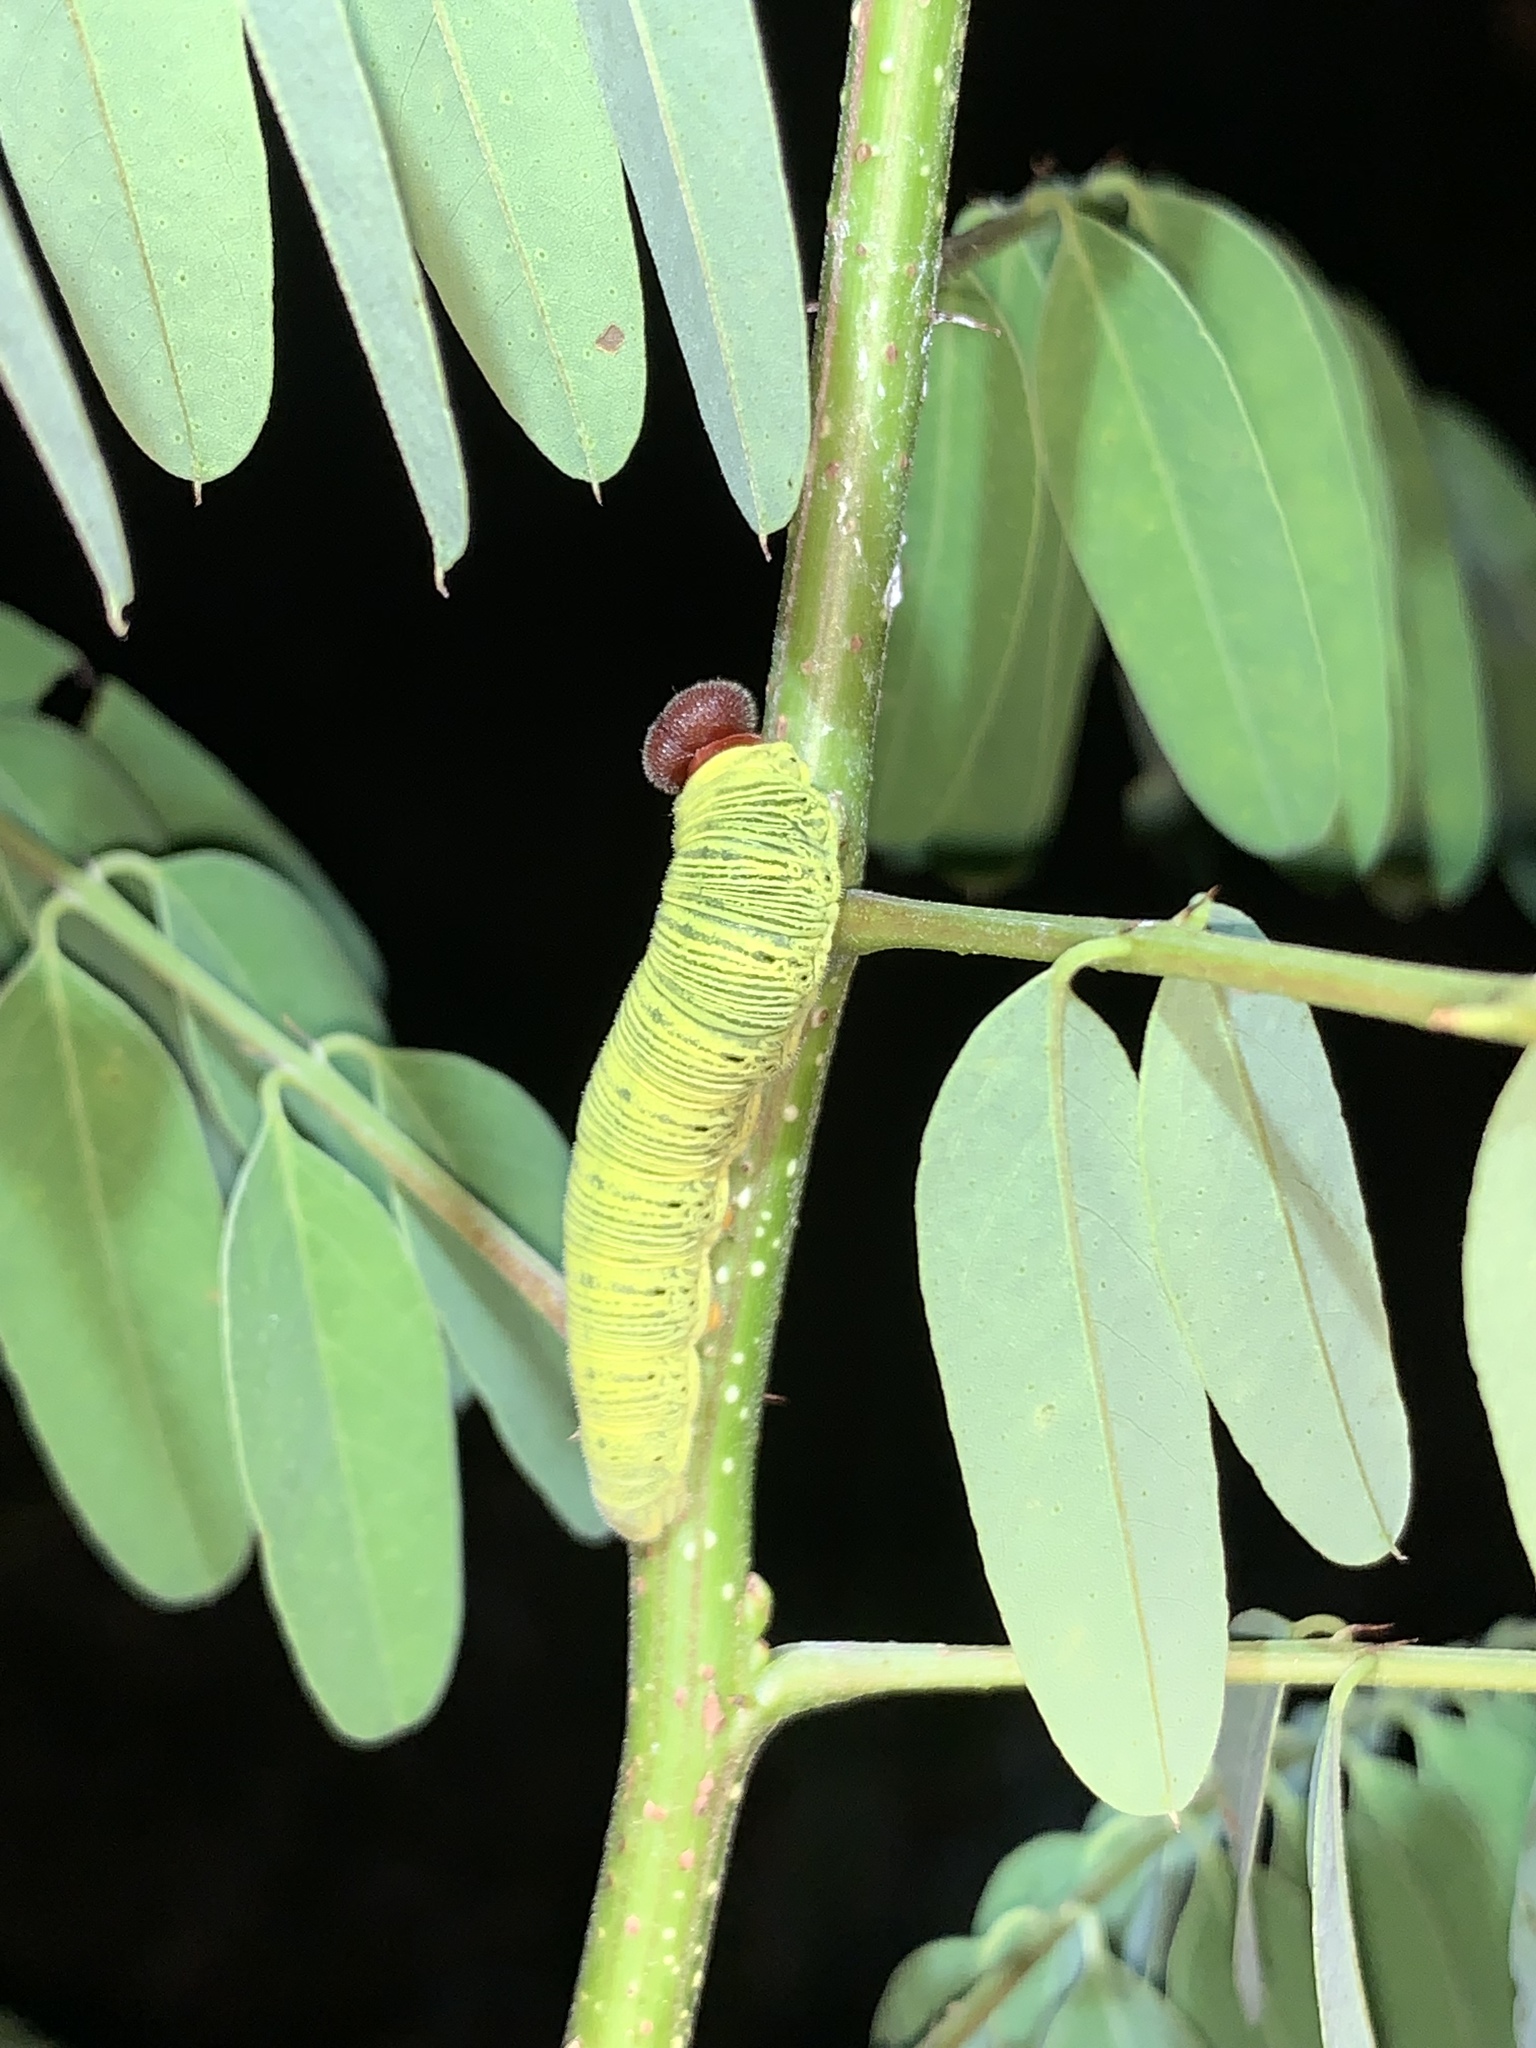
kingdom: Animalia
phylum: Arthropoda
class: Insecta
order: Lepidoptera
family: Hesperiidae
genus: Epargyreus
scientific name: Epargyreus clarus
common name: Silver-spotted skipper
